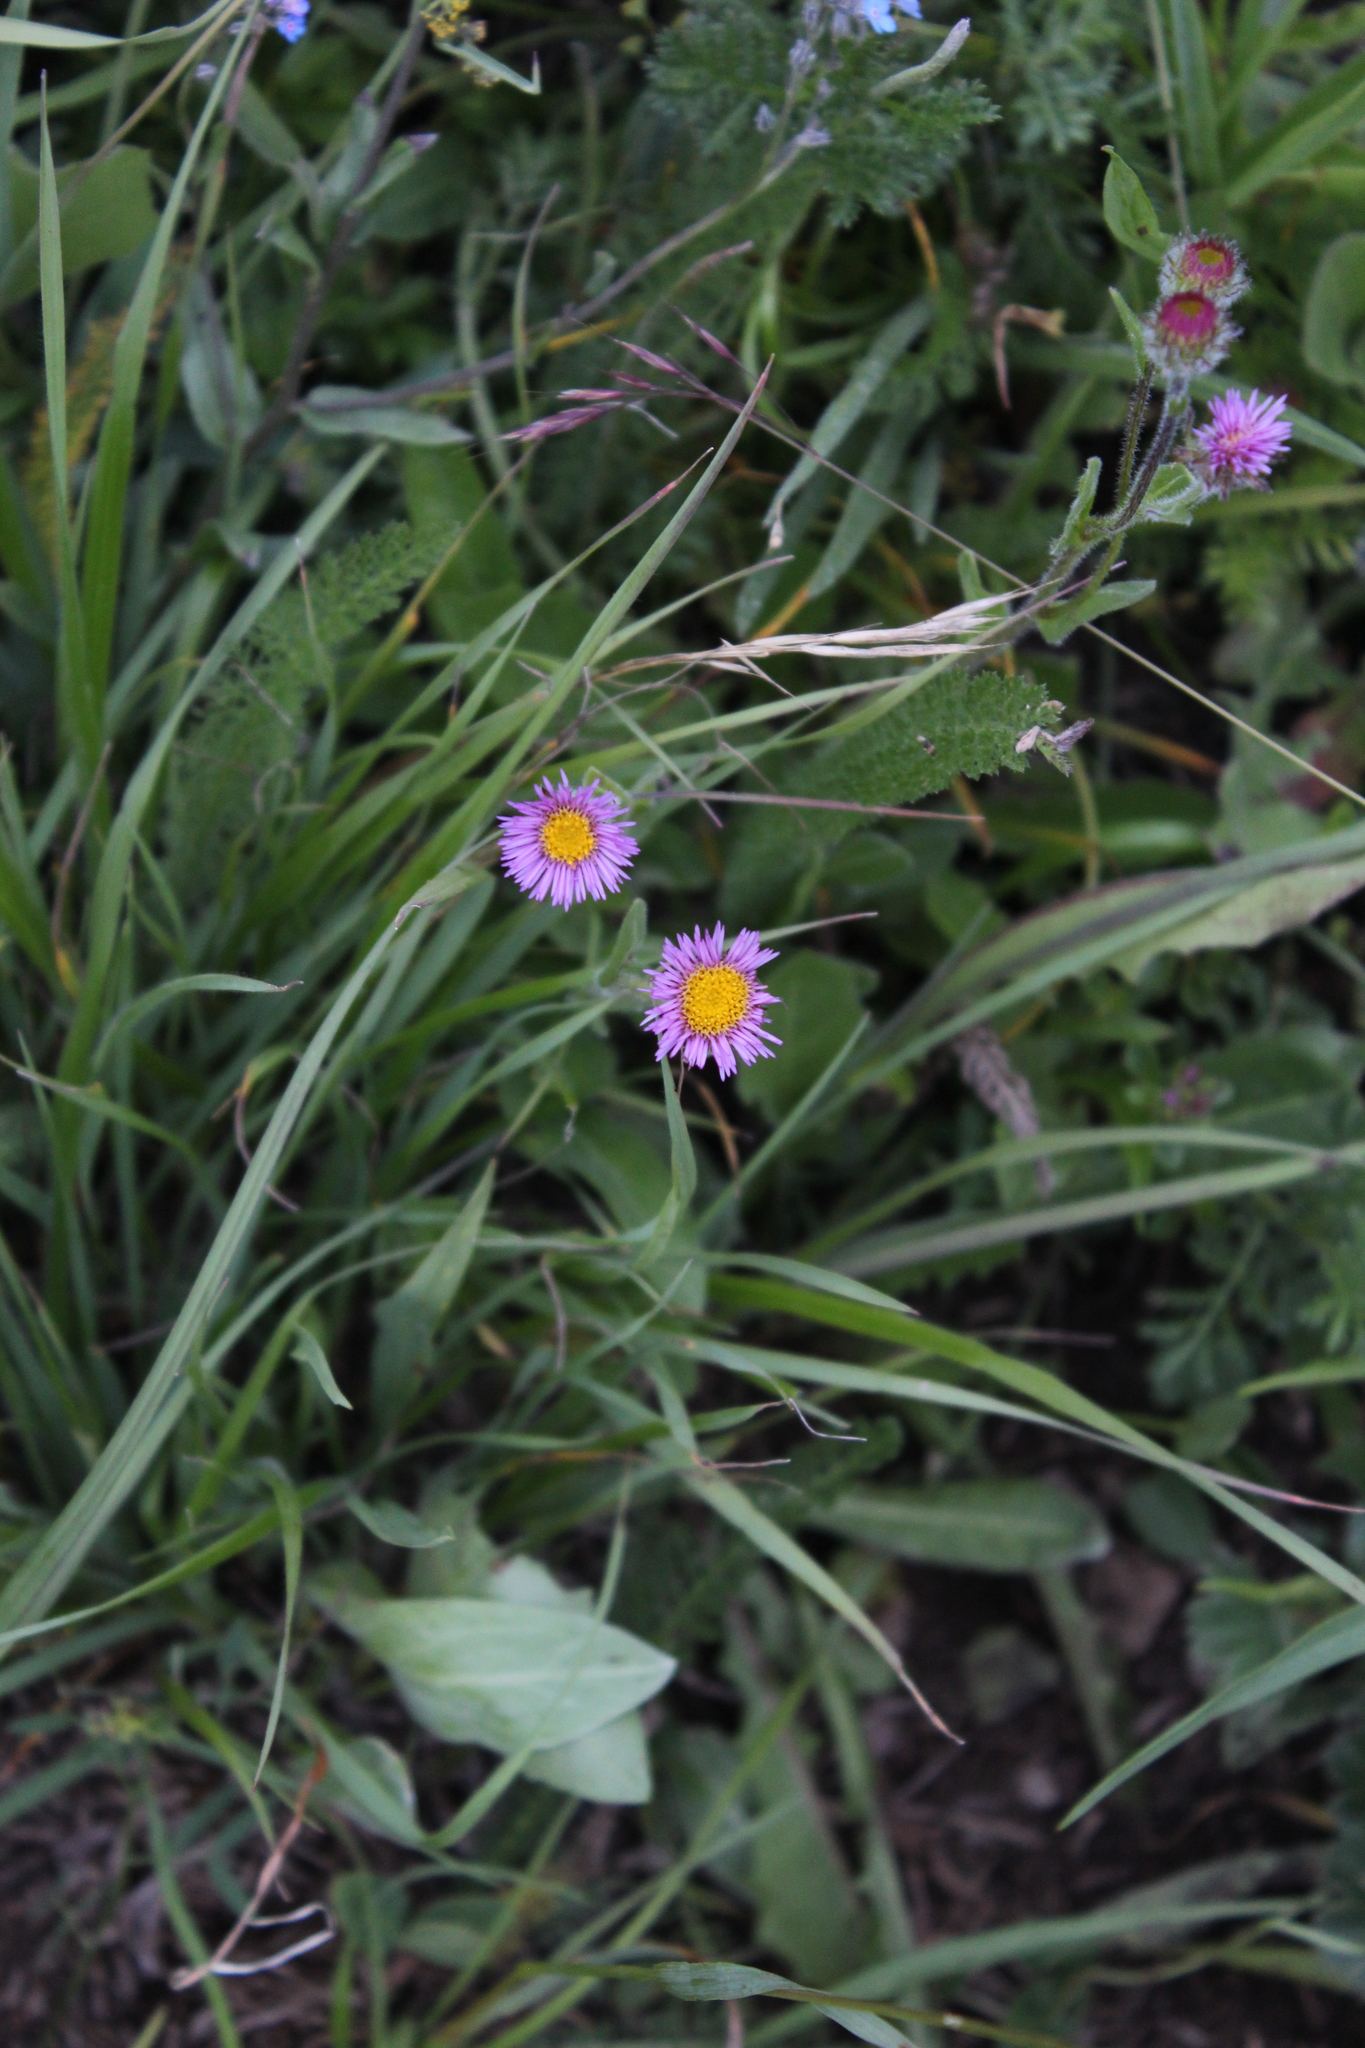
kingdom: Plantae
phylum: Tracheophyta
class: Magnoliopsida
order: Asterales
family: Asteraceae
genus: Erigeron
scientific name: Erigeron caucasicus
